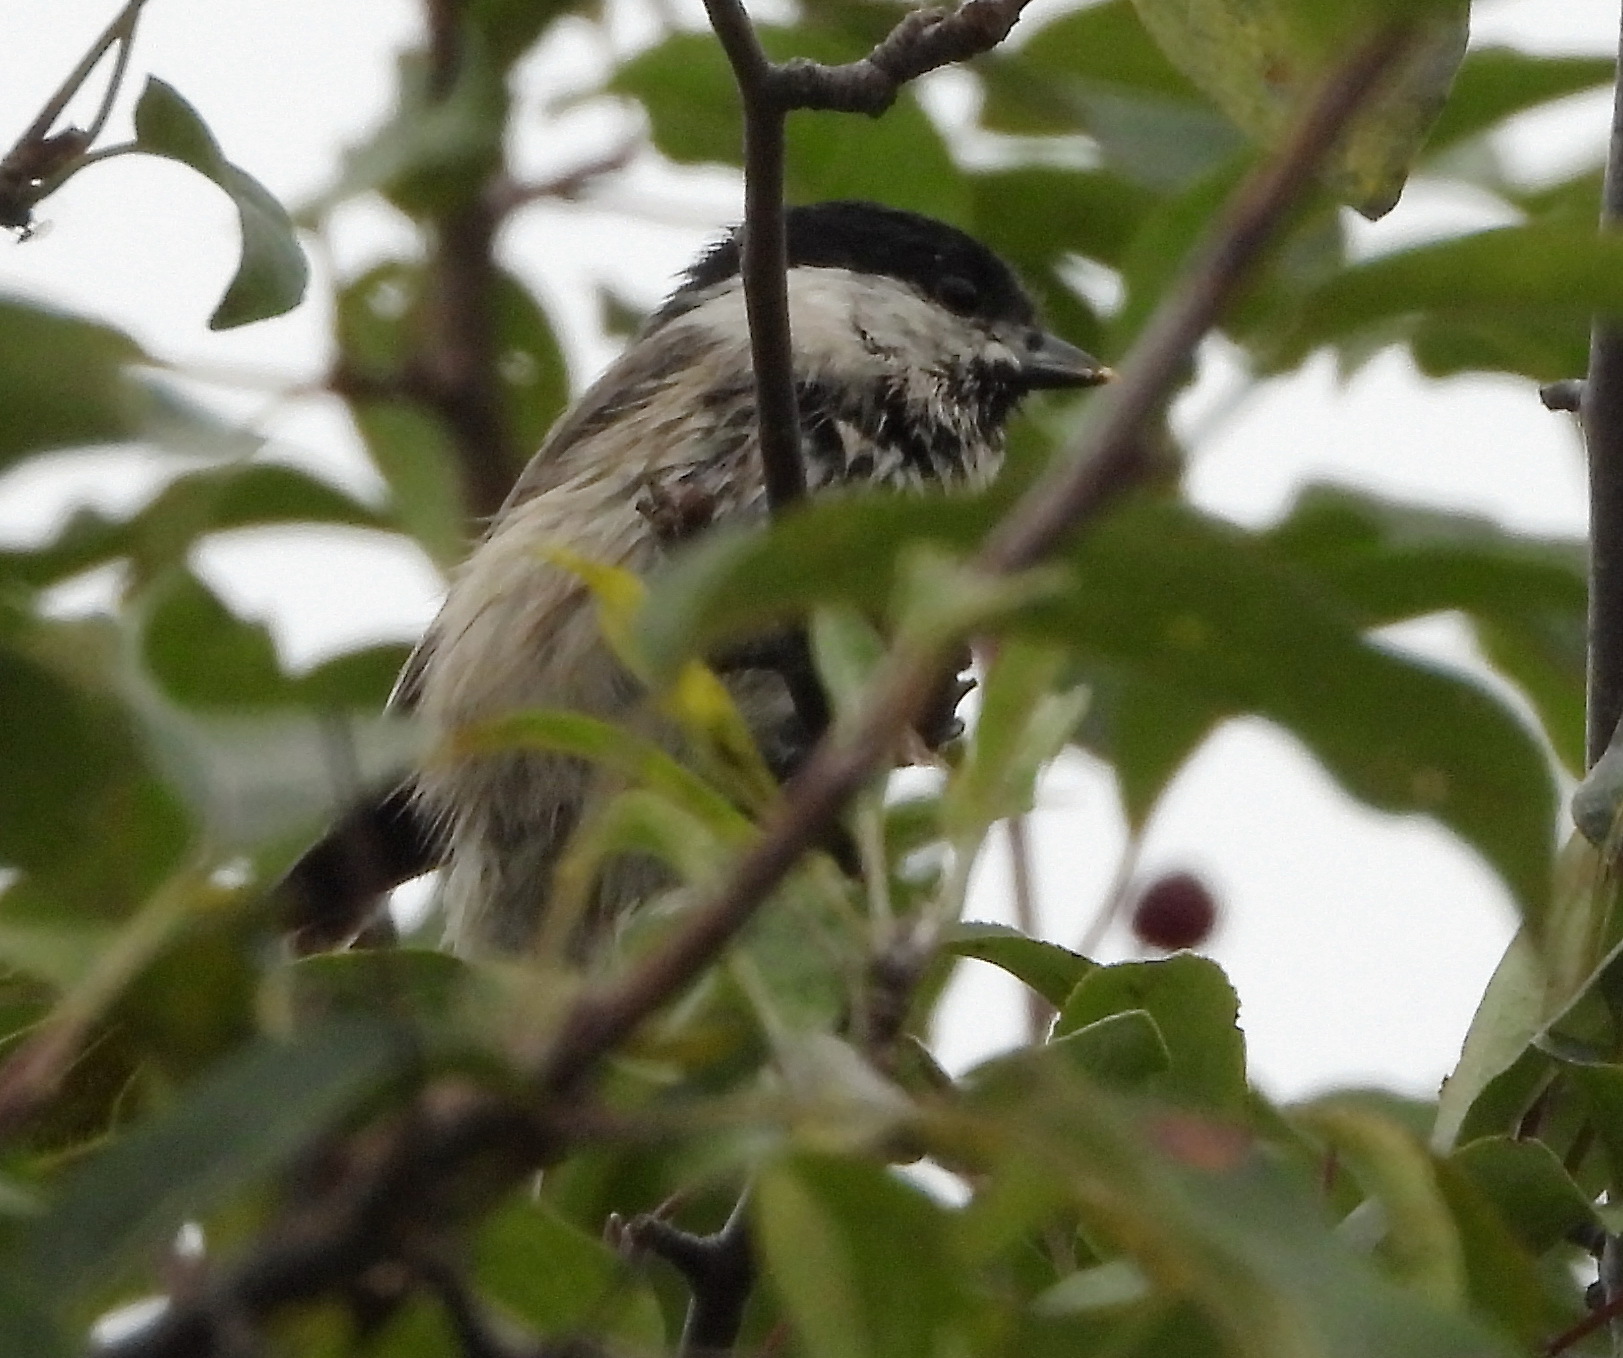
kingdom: Animalia
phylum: Chordata
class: Aves
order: Passeriformes
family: Paridae
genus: Poecile
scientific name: Poecile palustris
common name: Marsh tit
